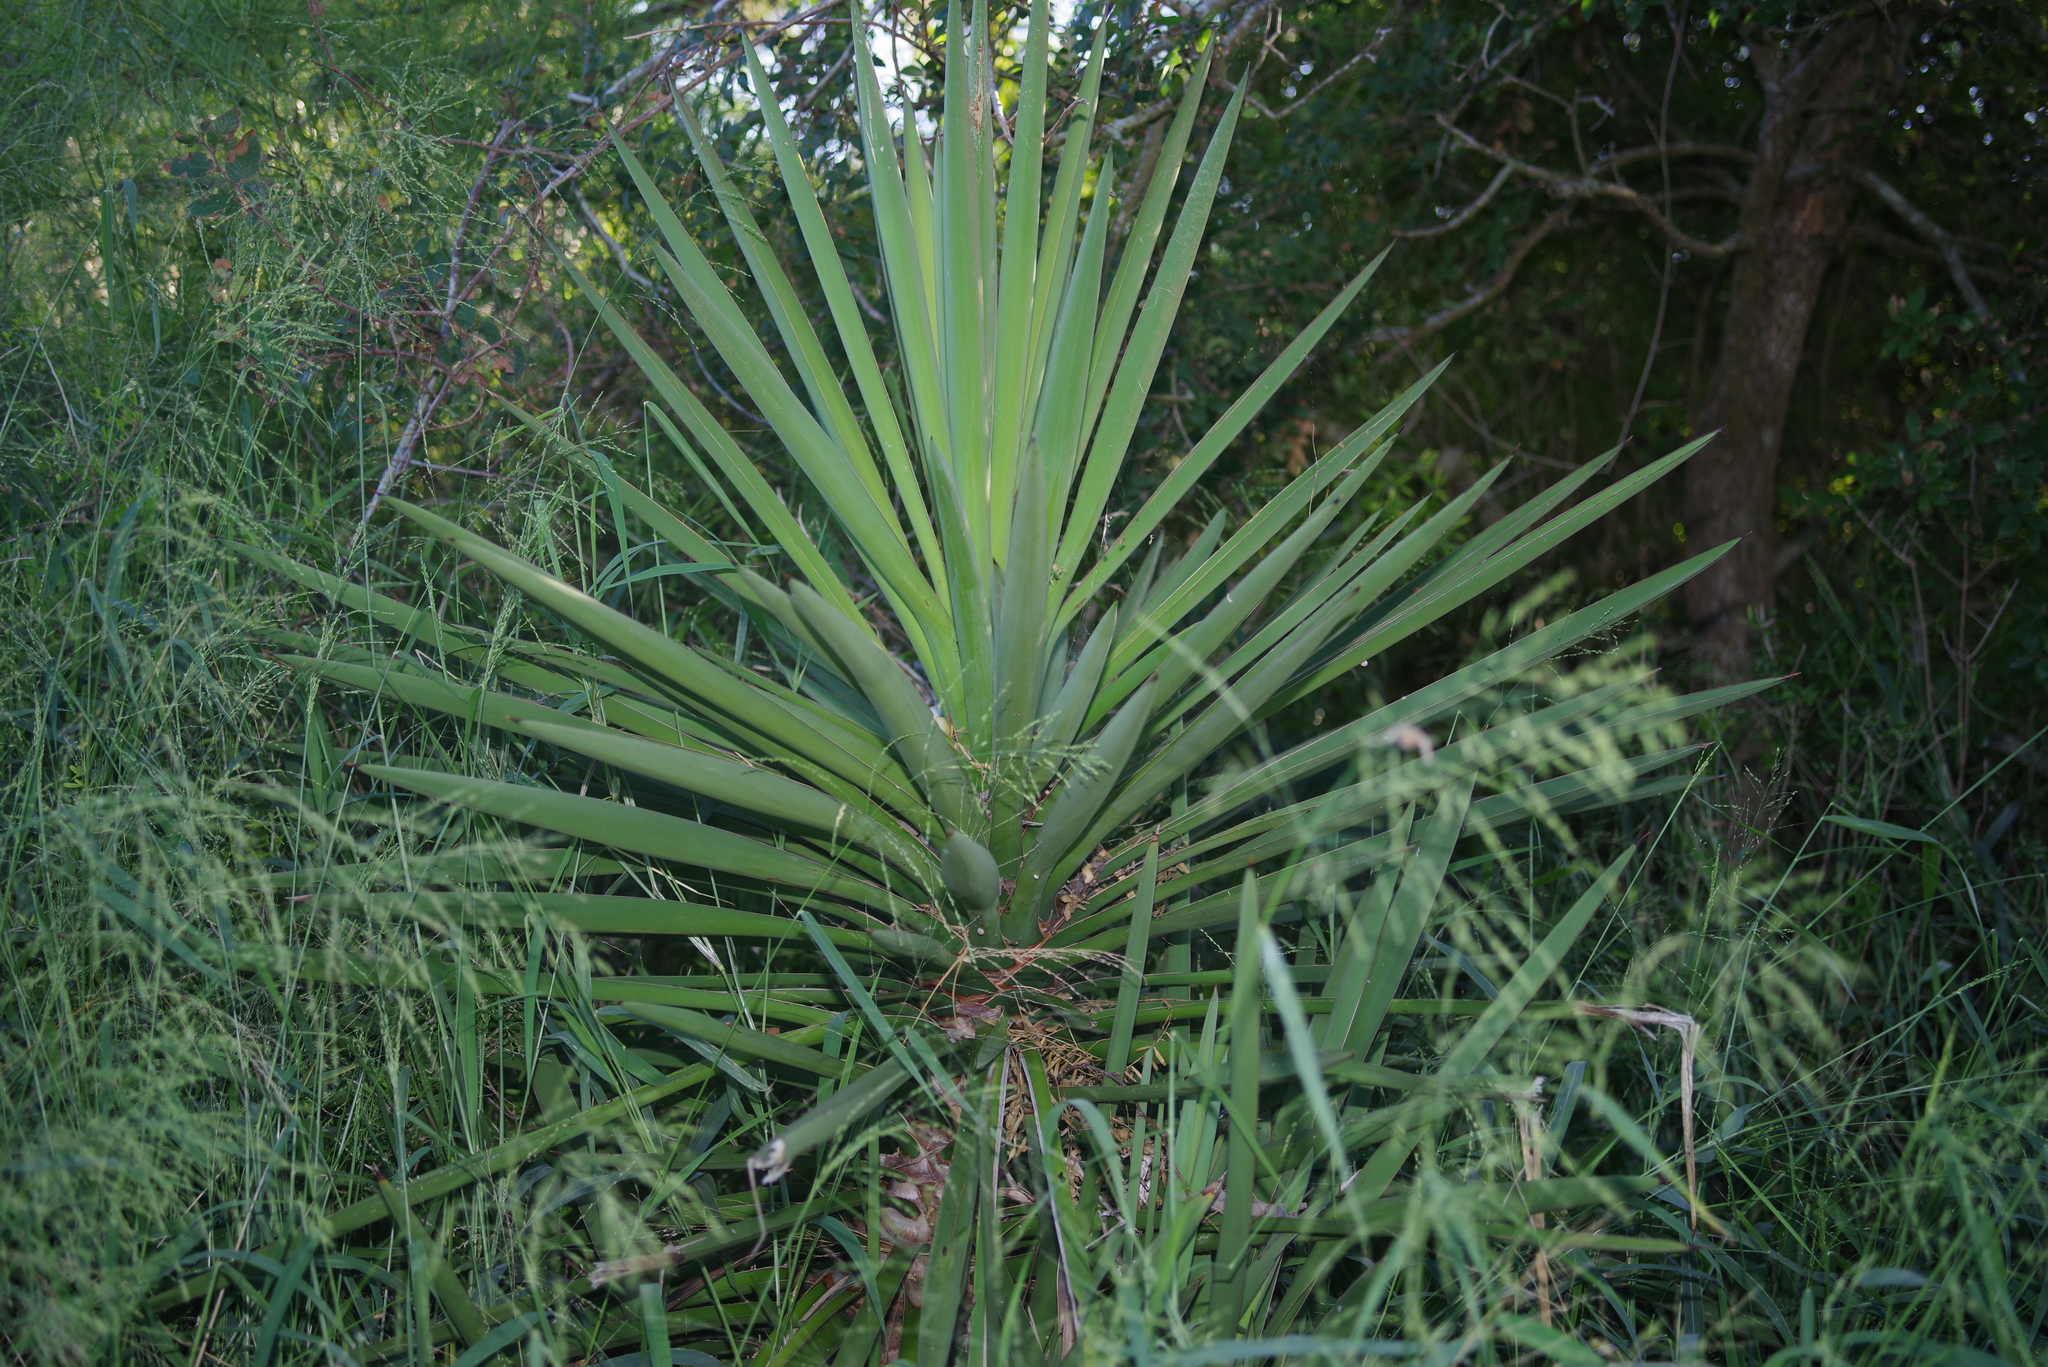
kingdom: Plantae
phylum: Tracheophyta
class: Liliopsida
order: Asparagales
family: Asparagaceae
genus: Yucca
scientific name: Yucca treculiana
